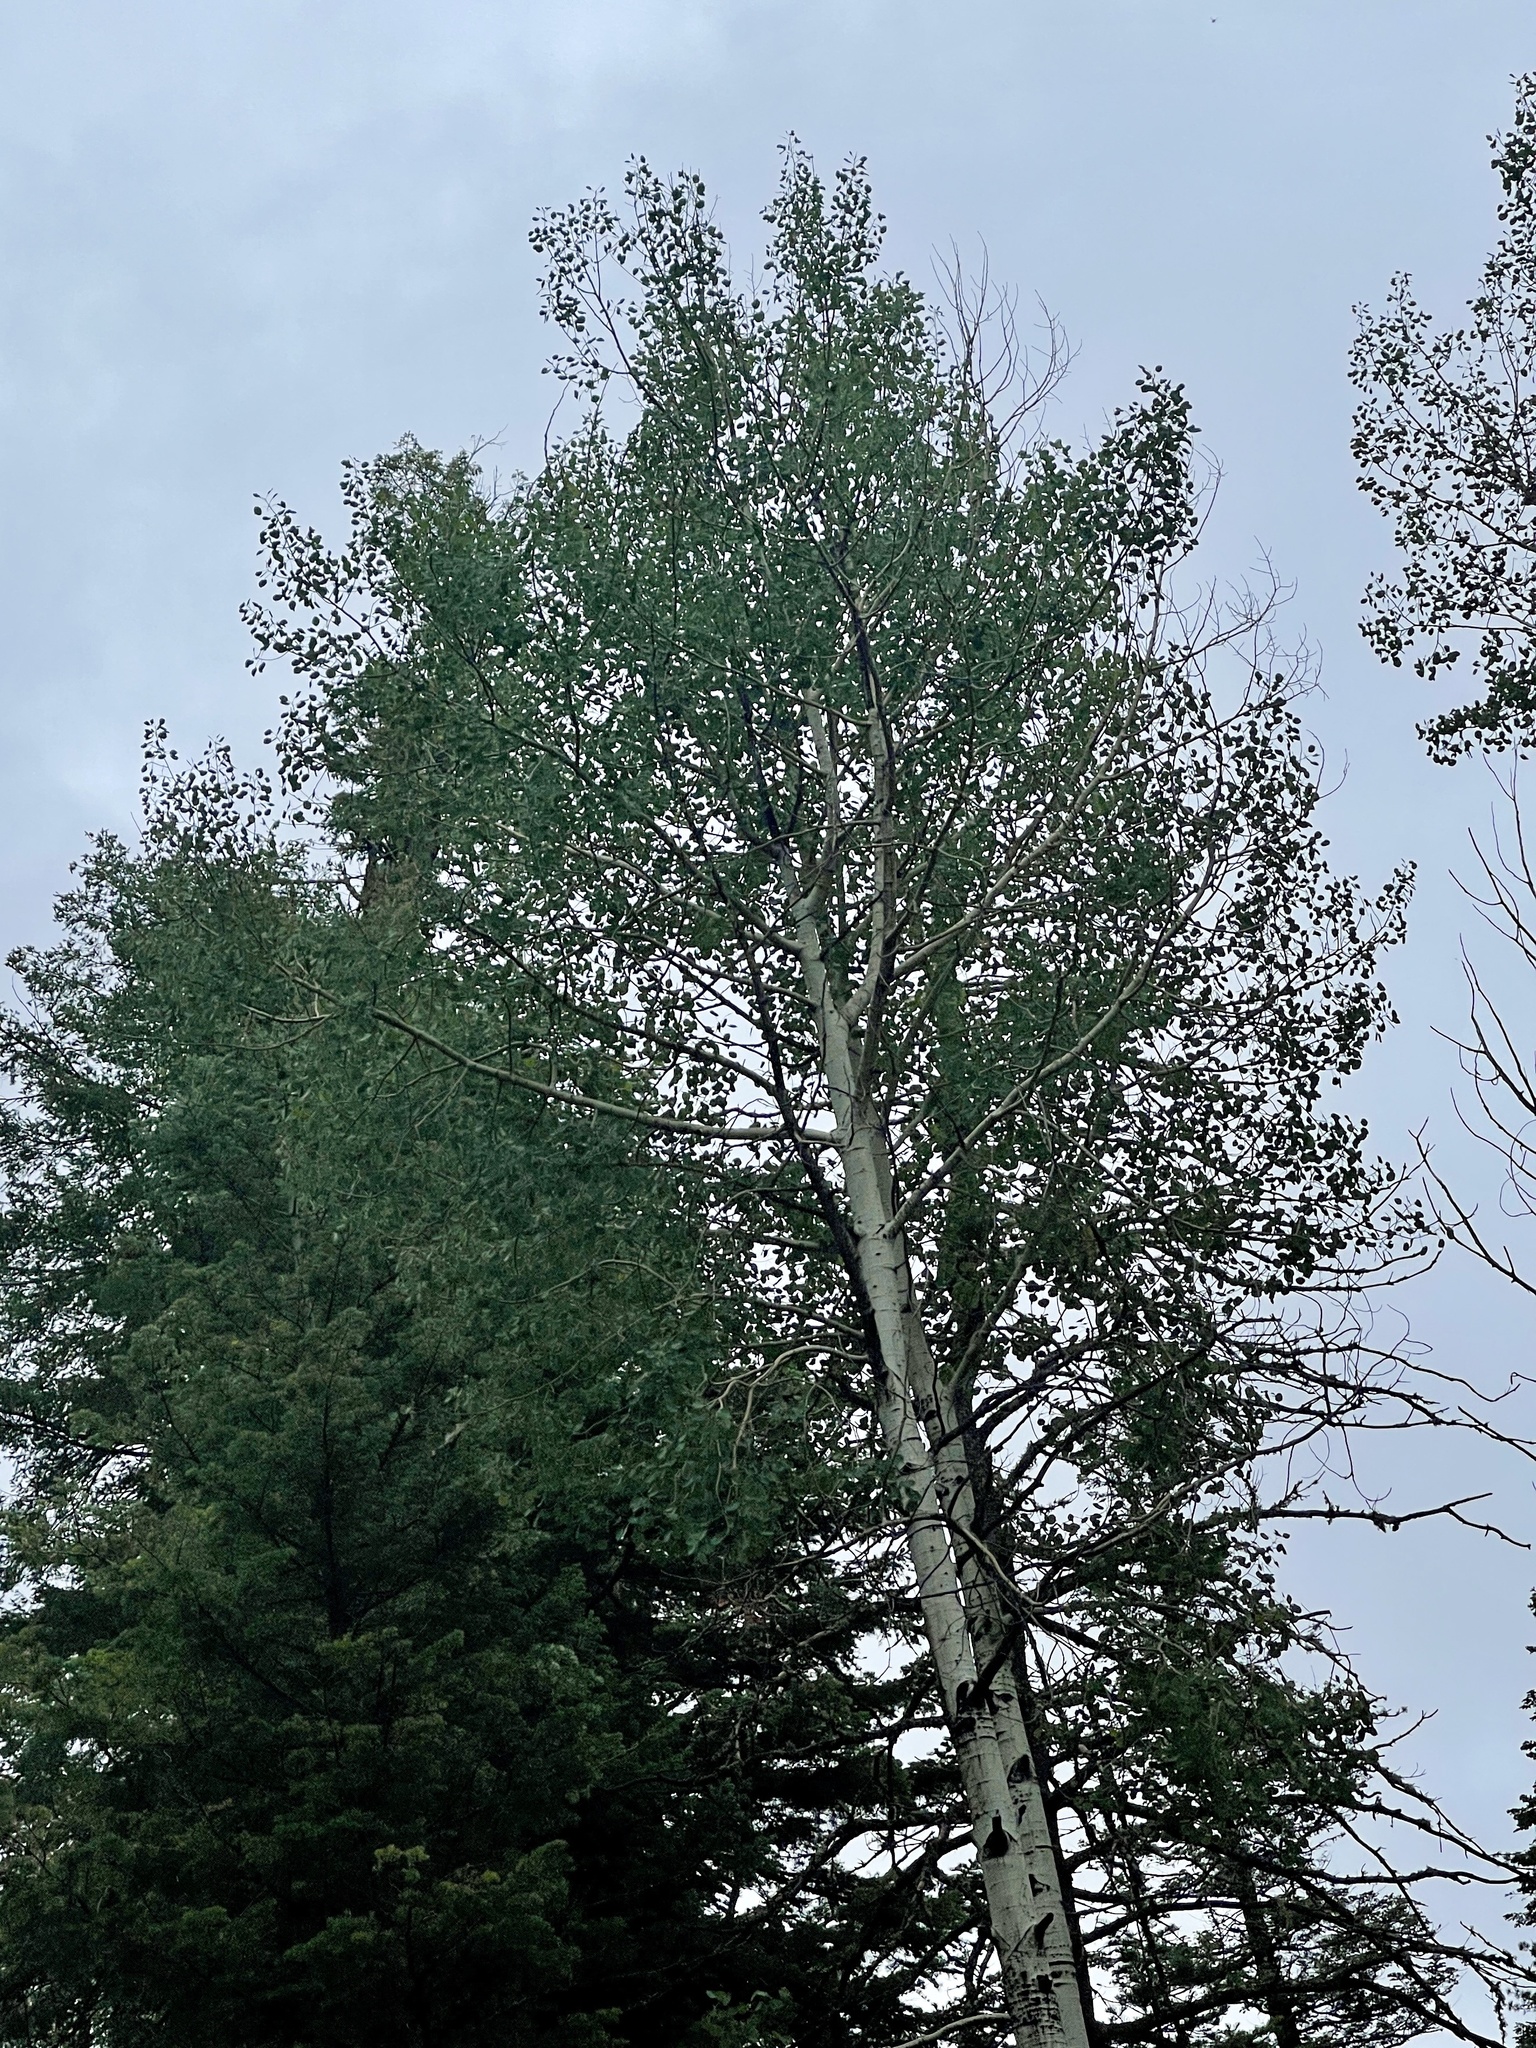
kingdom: Plantae
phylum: Tracheophyta
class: Magnoliopsida
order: Malpighiales
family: Salicaceae
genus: Populus
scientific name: Populus tremuloides
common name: Quaking aspen
